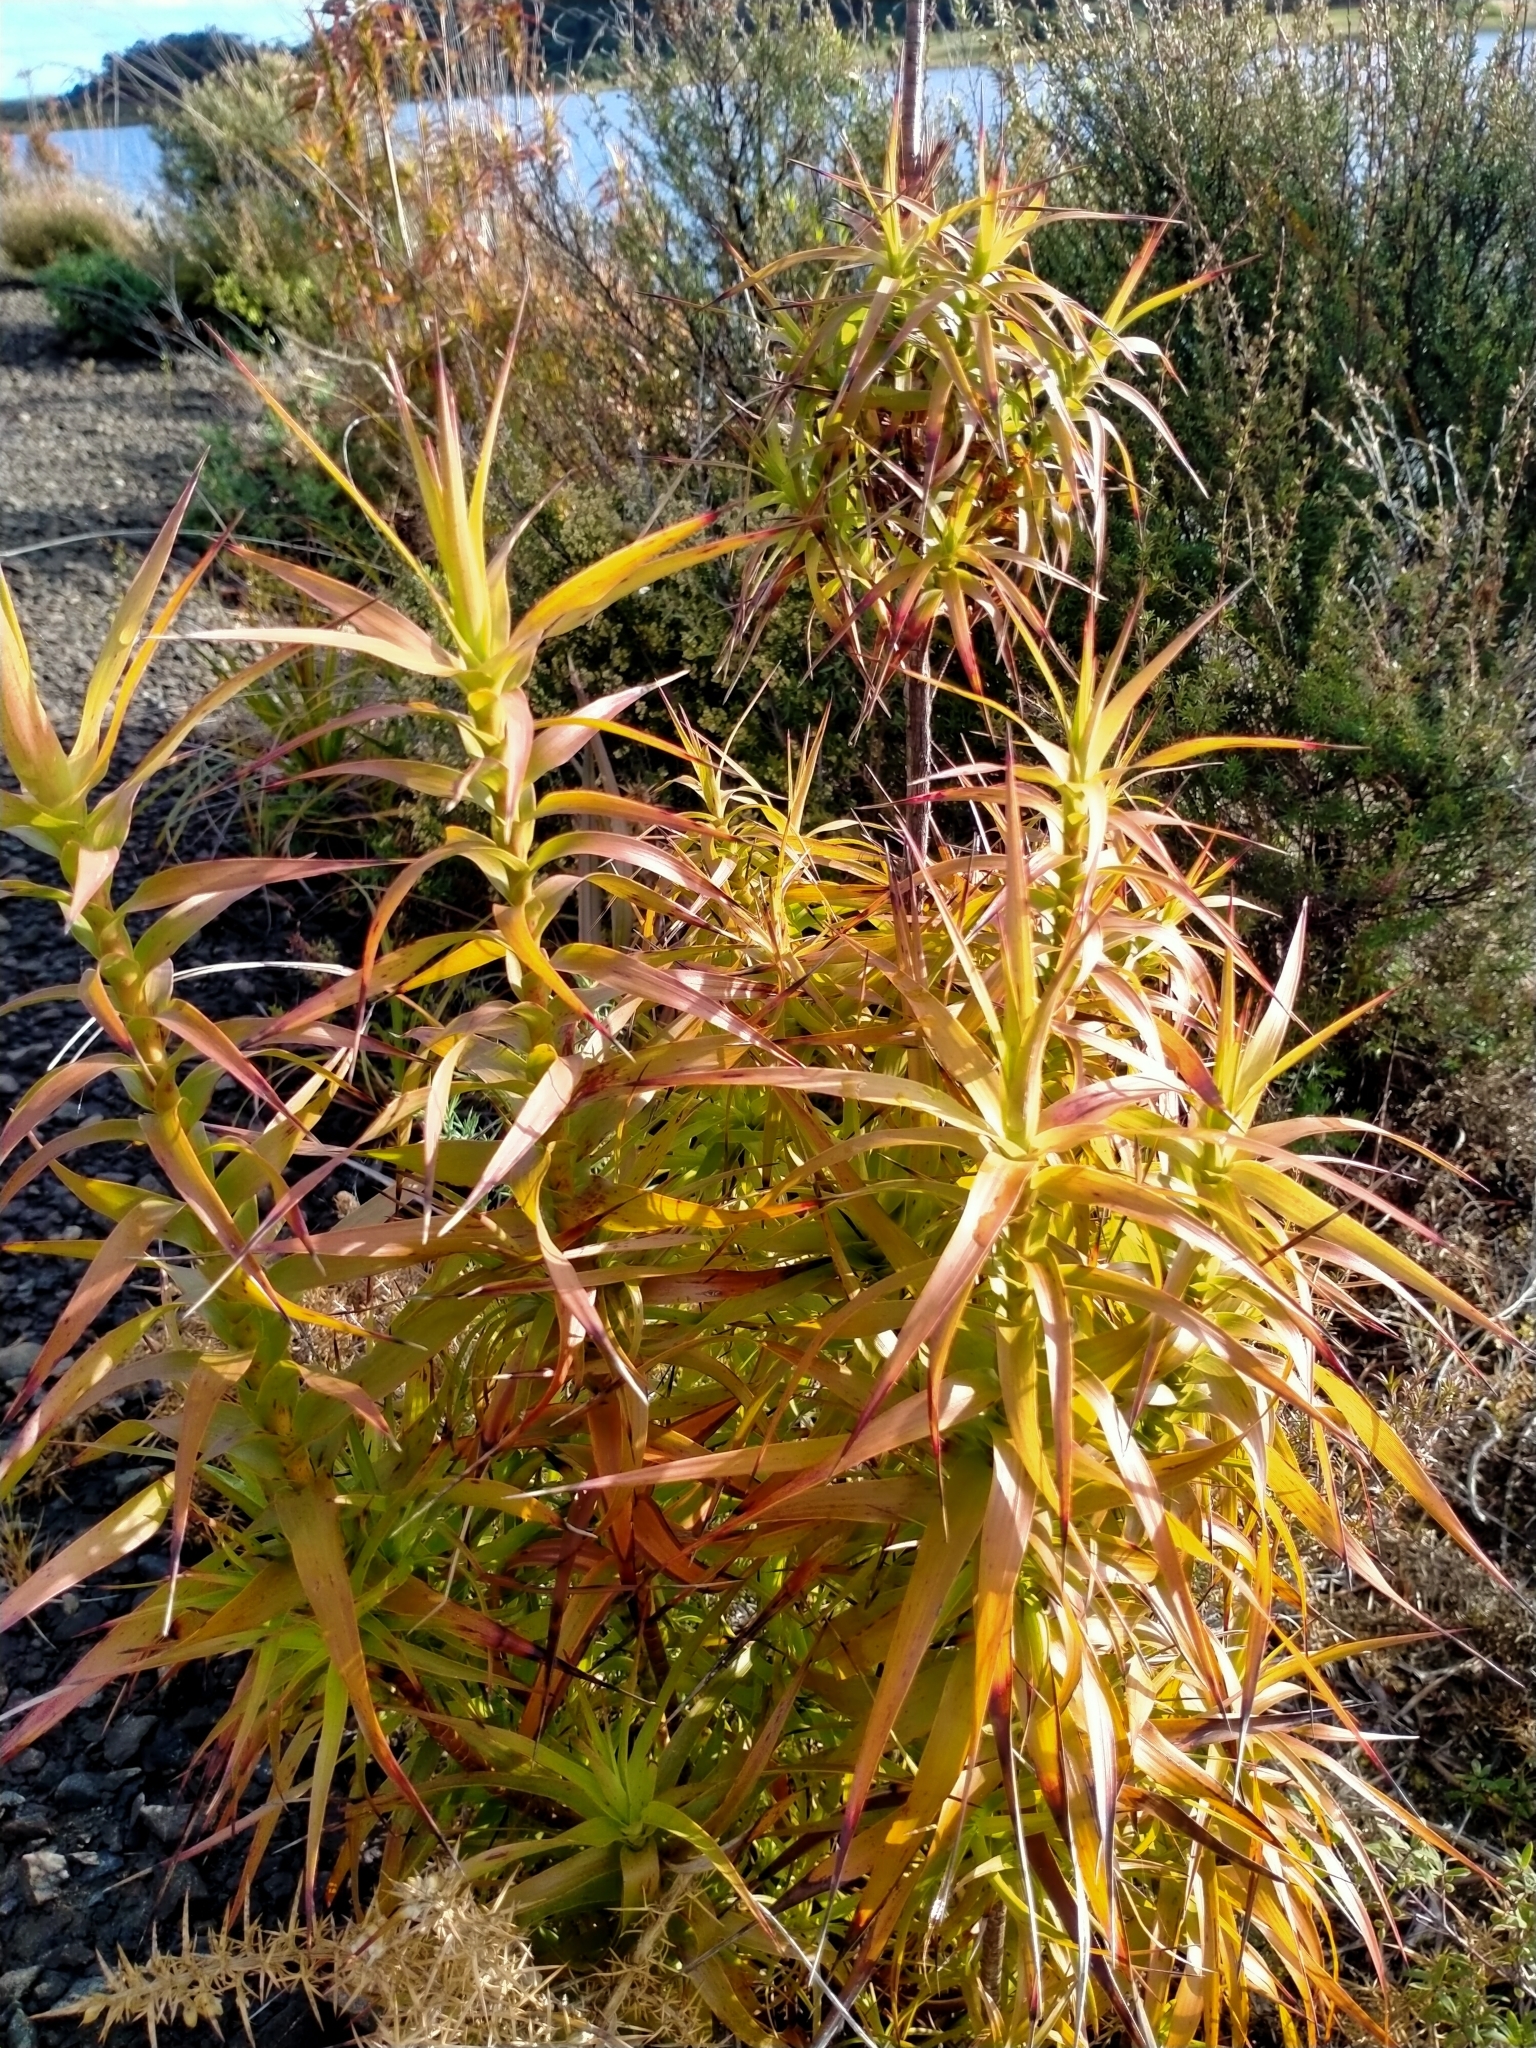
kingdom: Plantae
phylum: Tracheophyta
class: Magnoliopsida
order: Ericales
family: Ericaceae
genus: Dracophyllum
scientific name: Dracophyllum sinclairii
